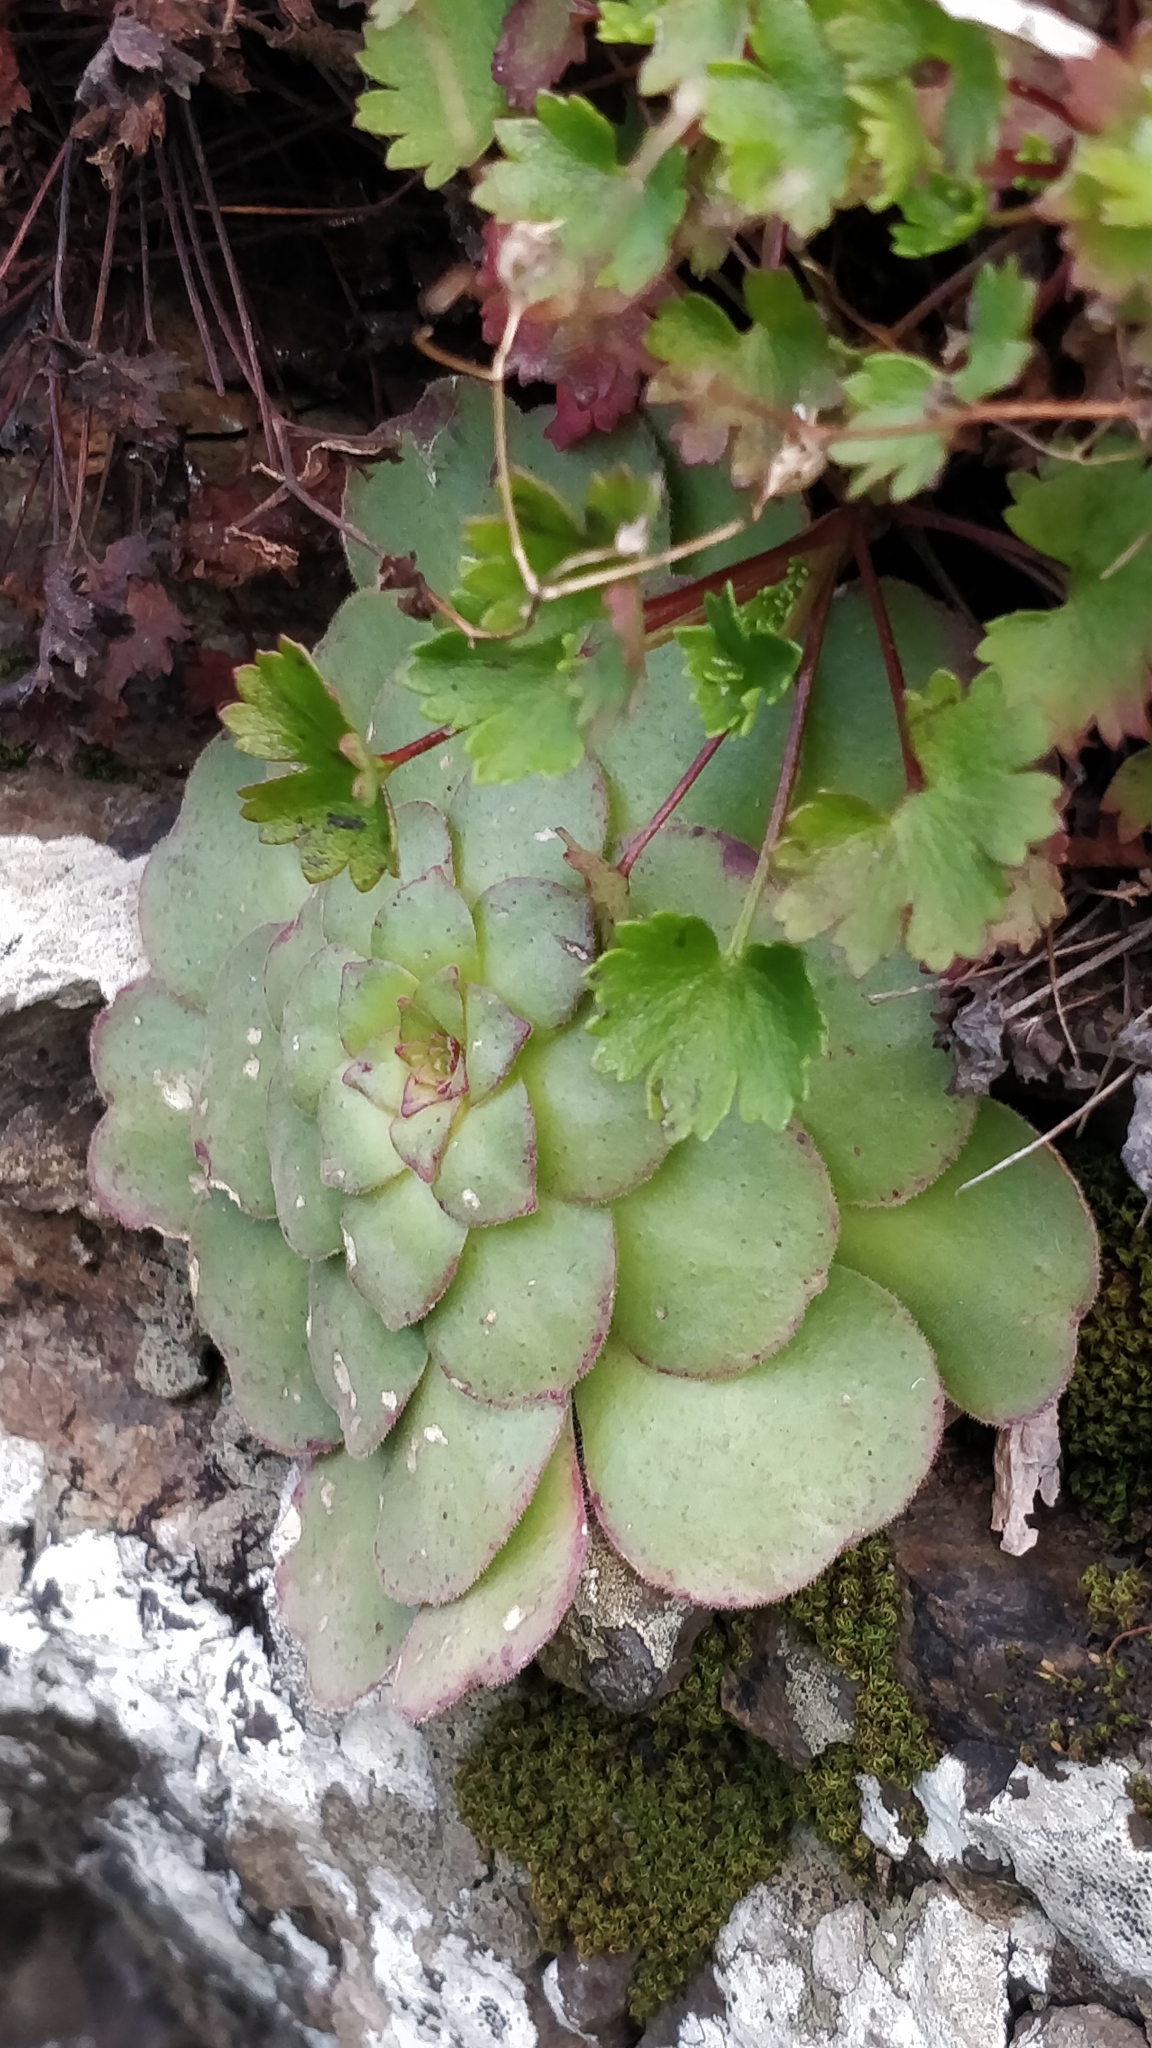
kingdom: Plantae
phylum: Tracheophyta
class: Magnoliopsida
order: Saxifragales
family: Crassulaceae
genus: Aeonium
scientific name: Aeonium glandulosum
